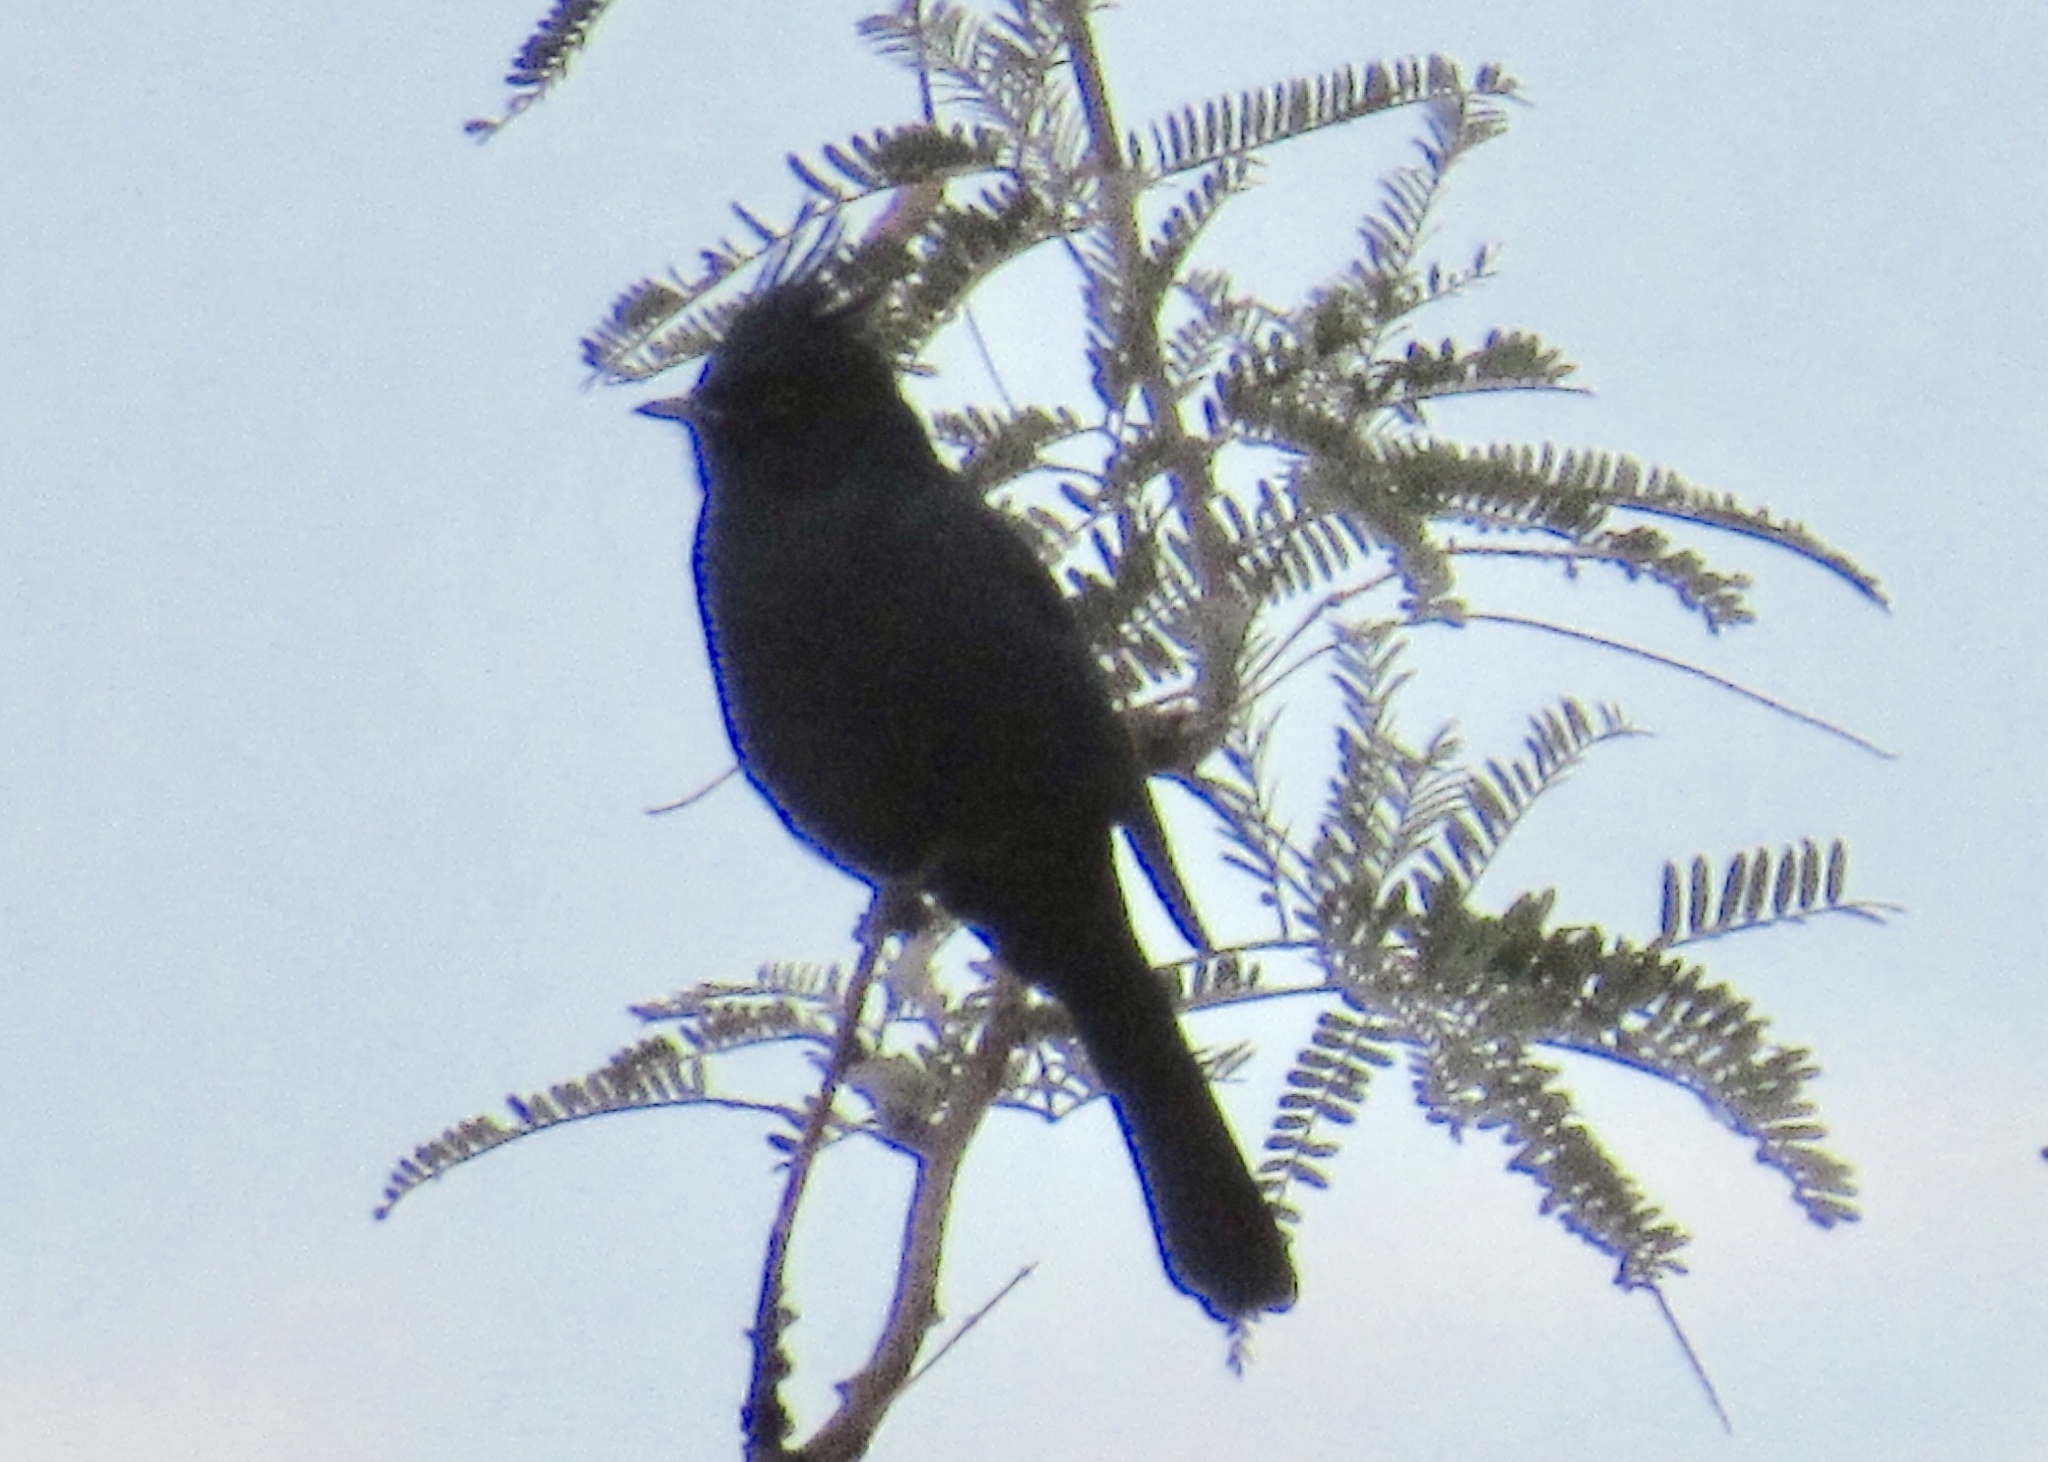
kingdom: Animalia
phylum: Chordata
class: Aves
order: Passeriformes
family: Ptilogonatidae
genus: Phainopepla
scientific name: Phainopepla nitens
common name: Phainopepla
